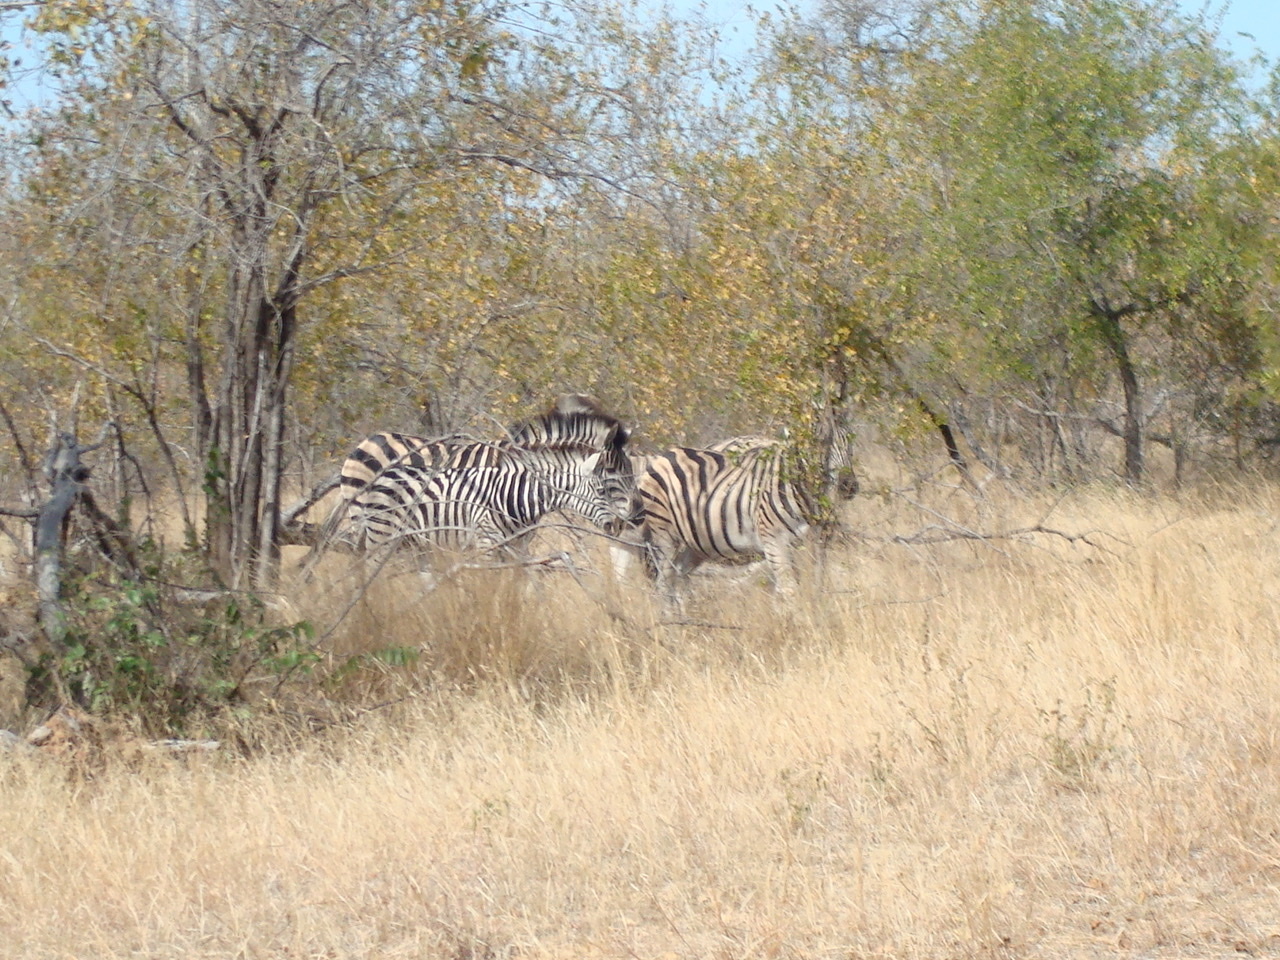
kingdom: Animalia
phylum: Chordata
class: Mammalia
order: Perissodactyla
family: Equidae
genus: Equus
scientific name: Equus quagga
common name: Plains zebra
